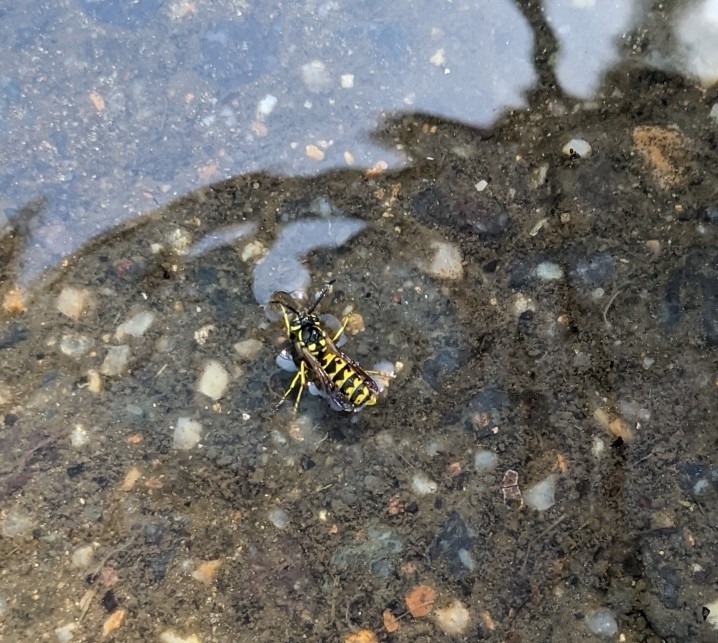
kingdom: Animalia
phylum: Arthropoda
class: Insecta
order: Hymenoptera
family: Vespidae
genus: Vespula
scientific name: Vespula germanica
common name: German wasp
